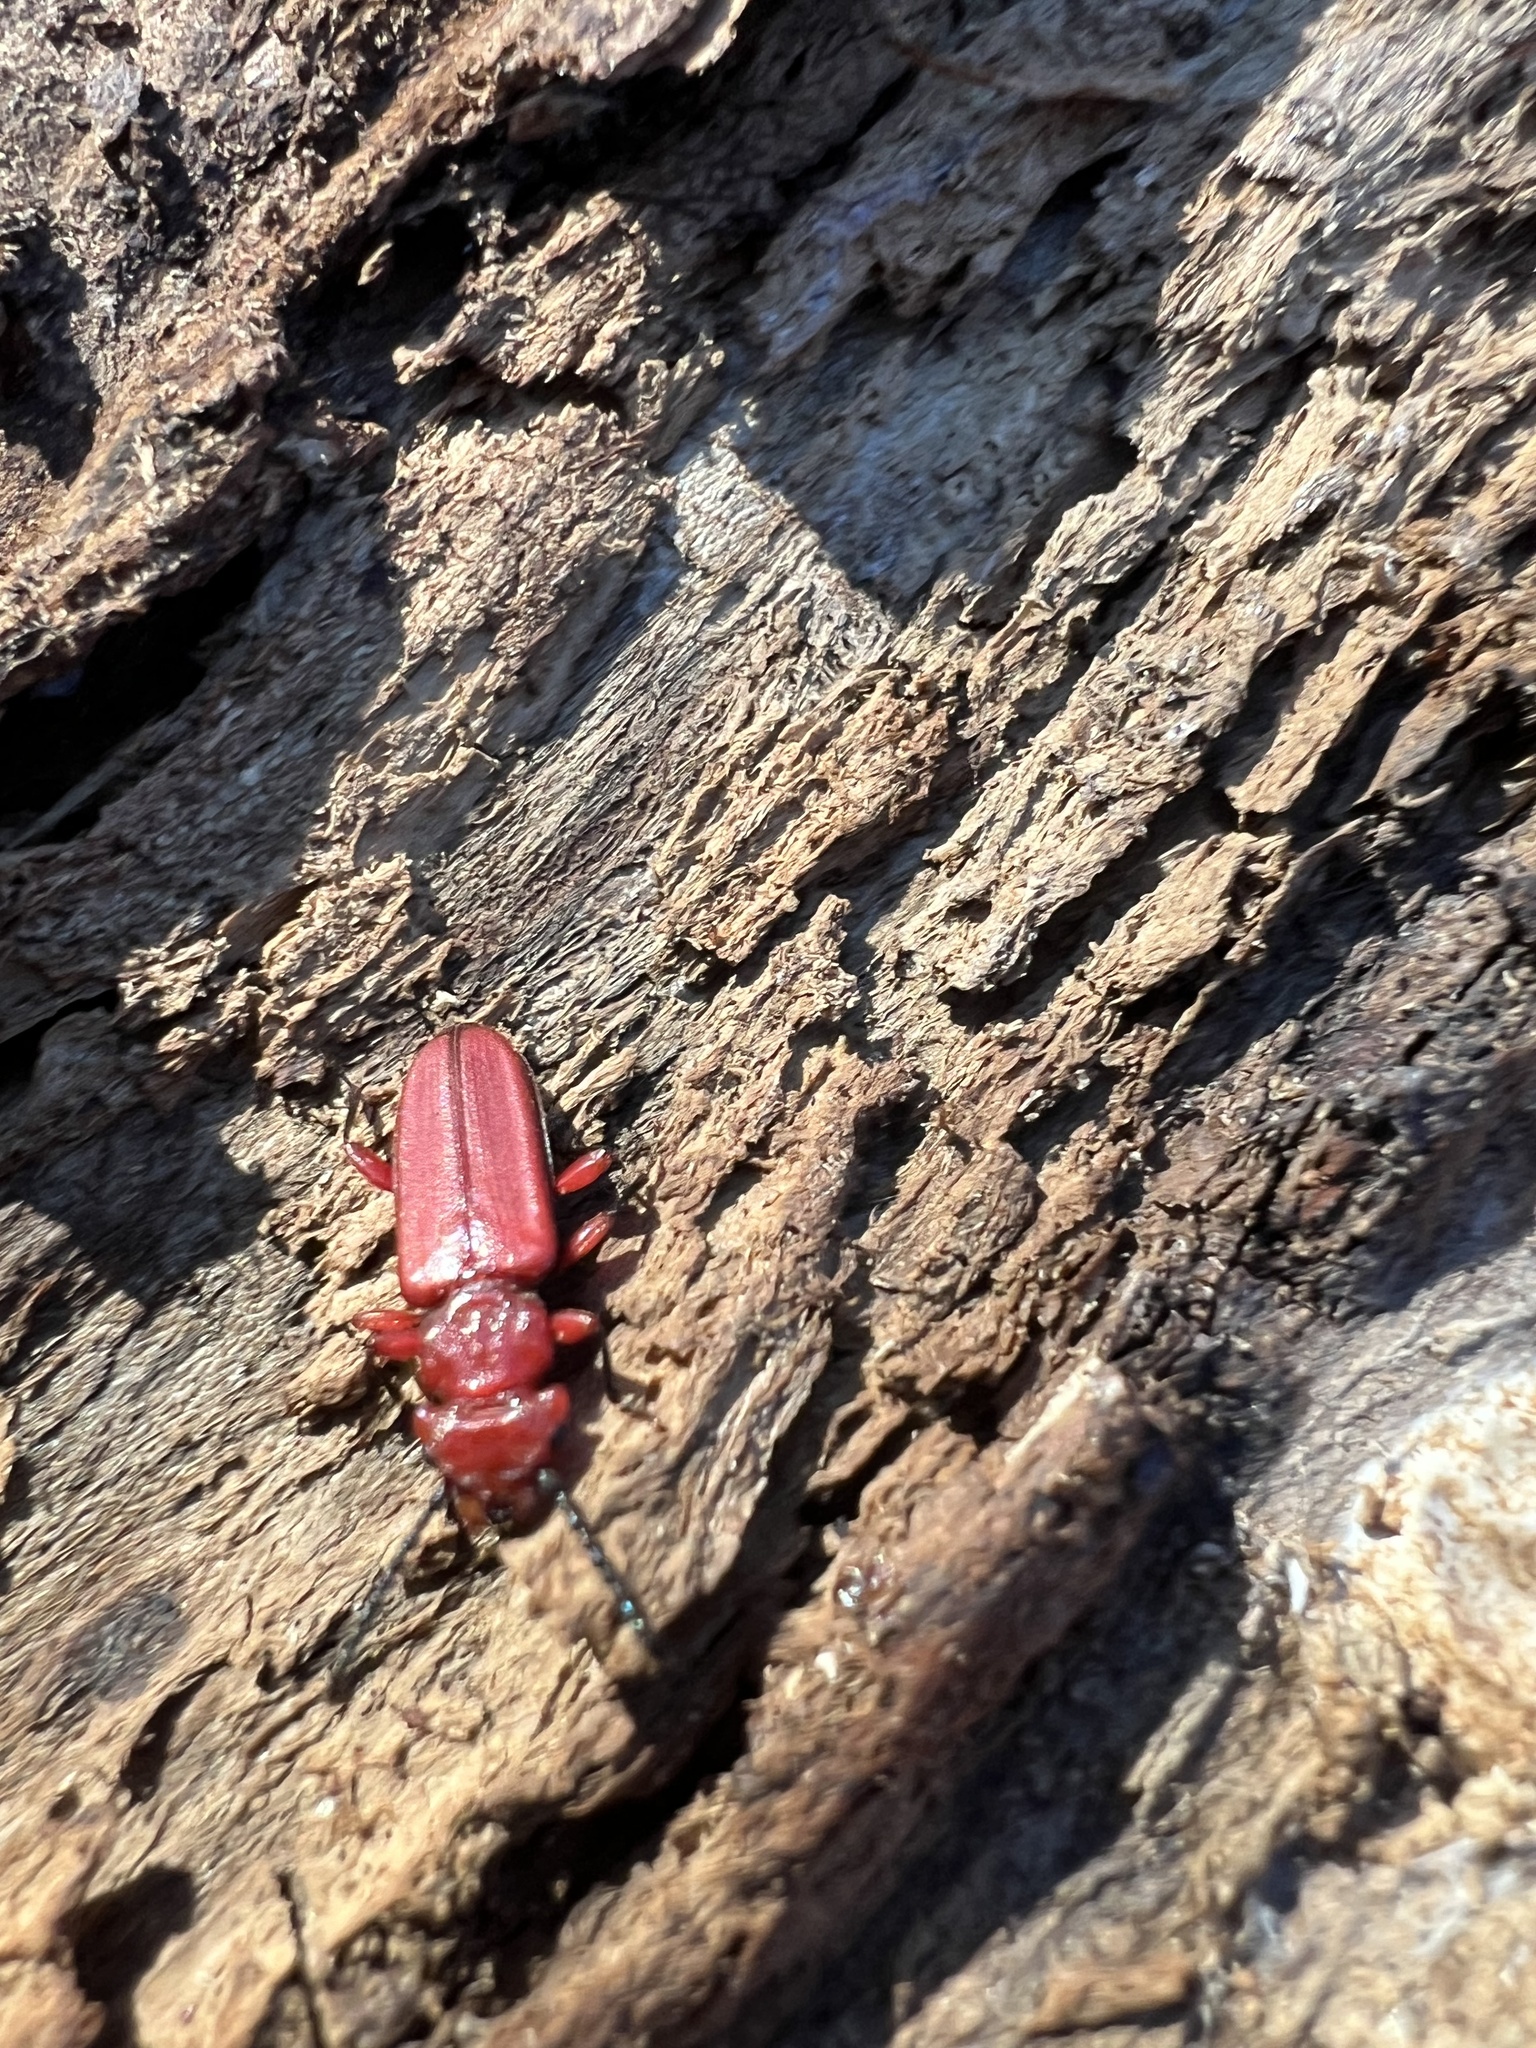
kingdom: Animalia
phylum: Arthropoda
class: Insecta
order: Coleoptera
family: Cucujidae
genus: Cucujus
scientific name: Cucujus clavipes
